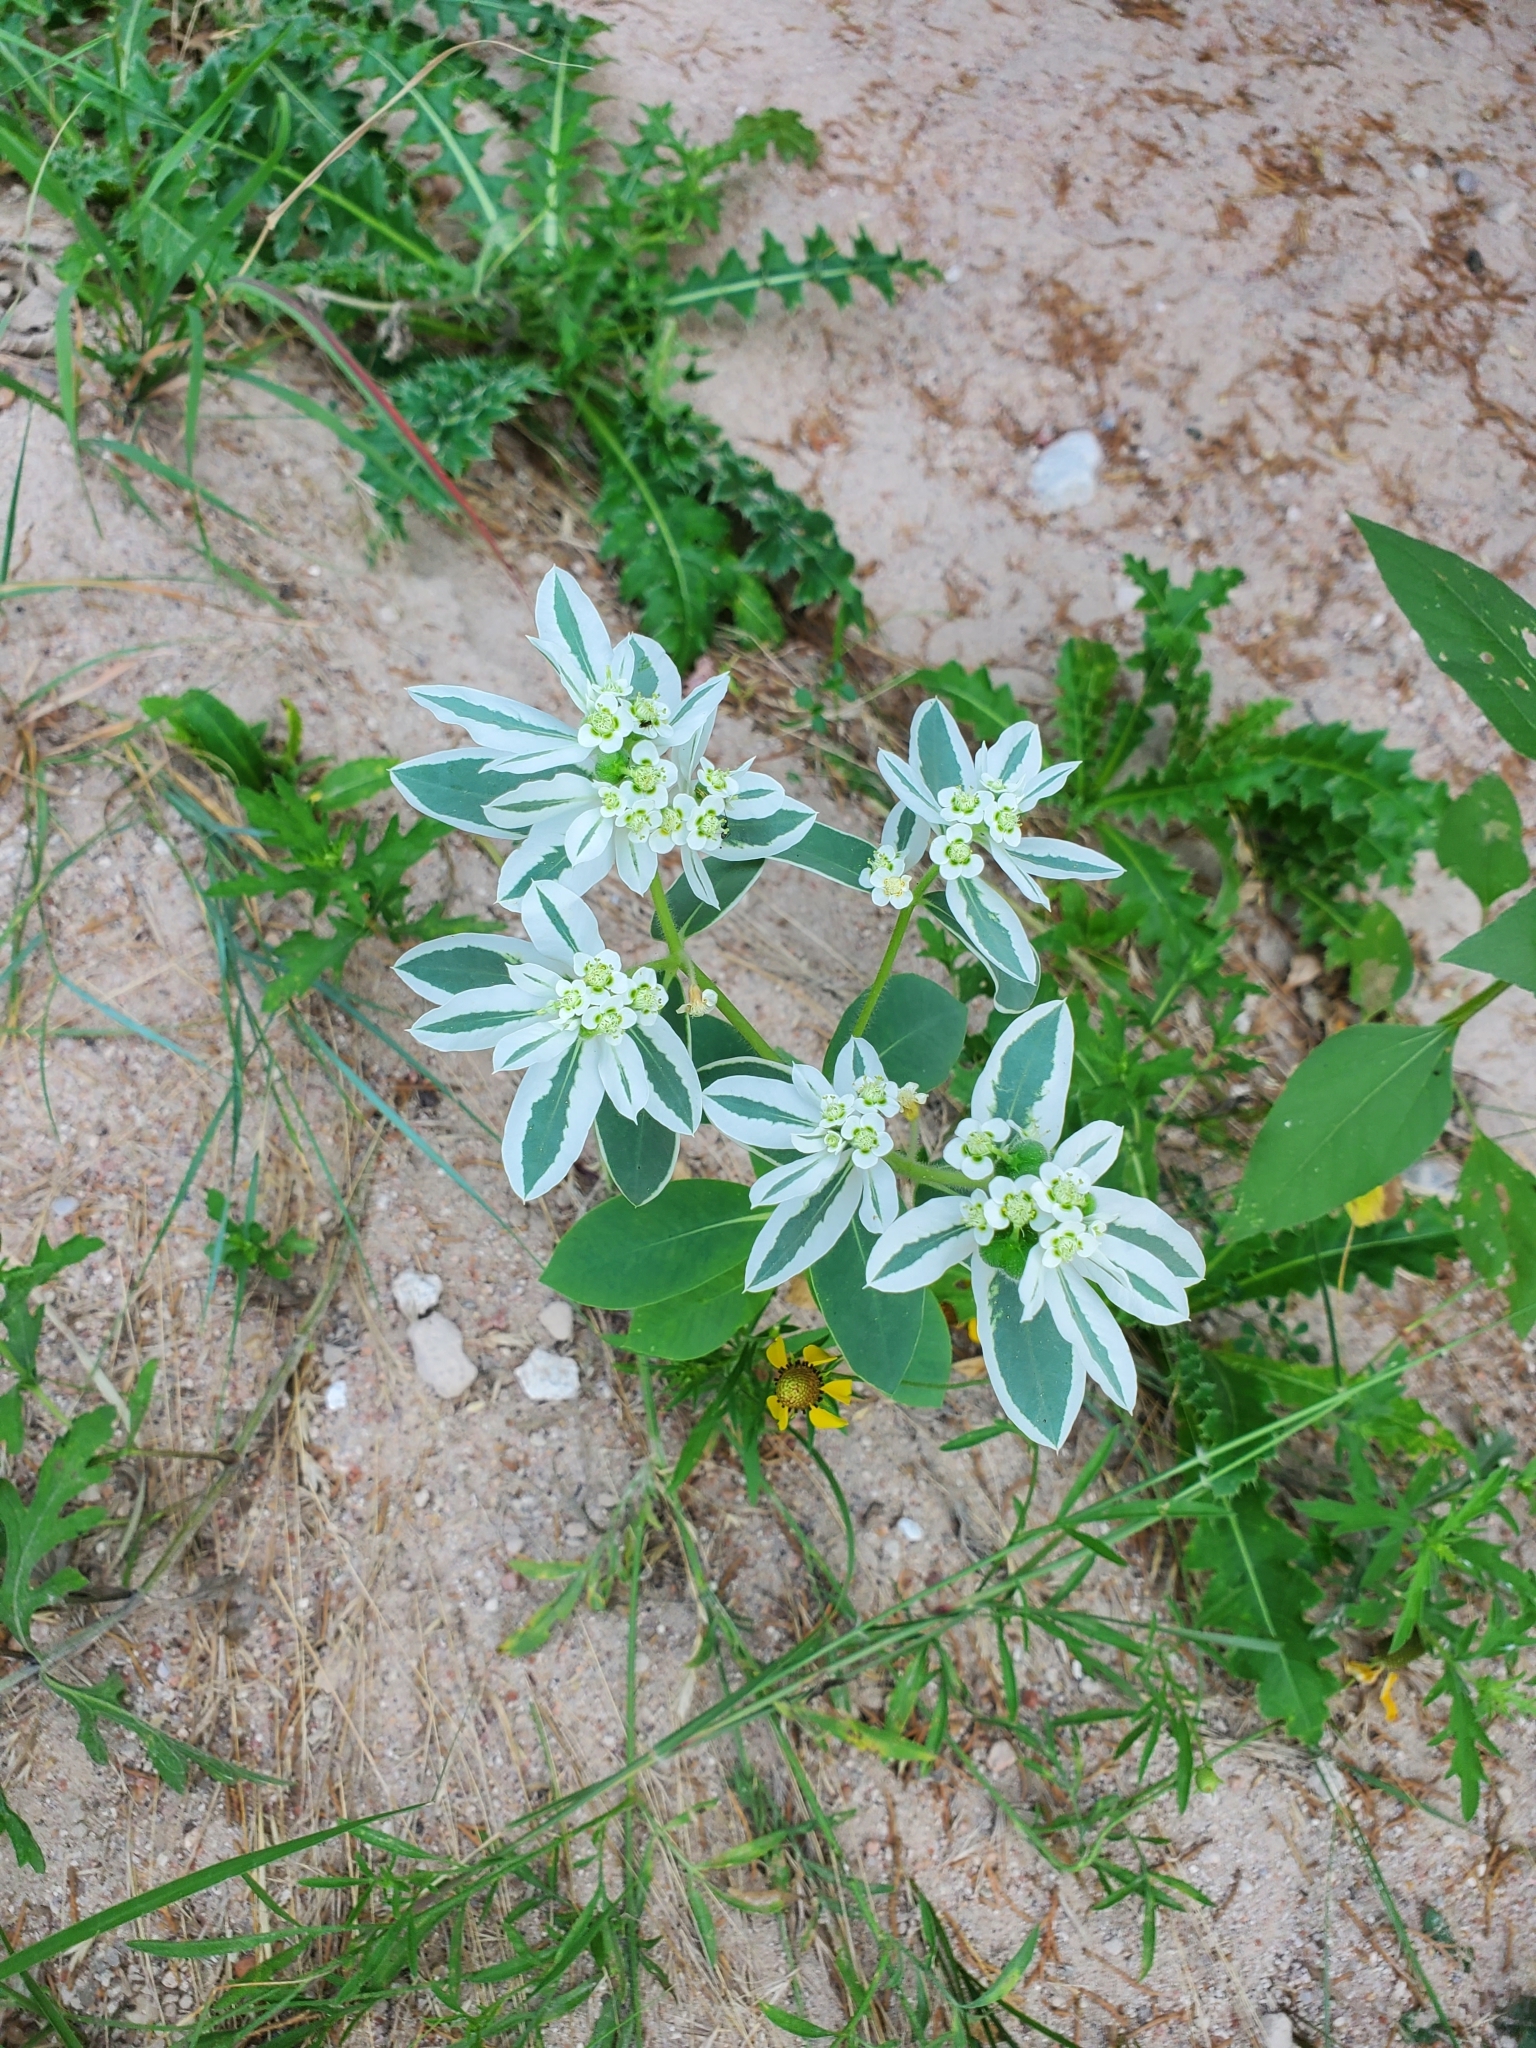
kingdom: Plantae
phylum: Tracheophyta
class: Magnoliopsida
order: Malpighiales
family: Euphorbiaceae
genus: Euphorbia
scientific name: Euphorbia marginata
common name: Ghostweed
